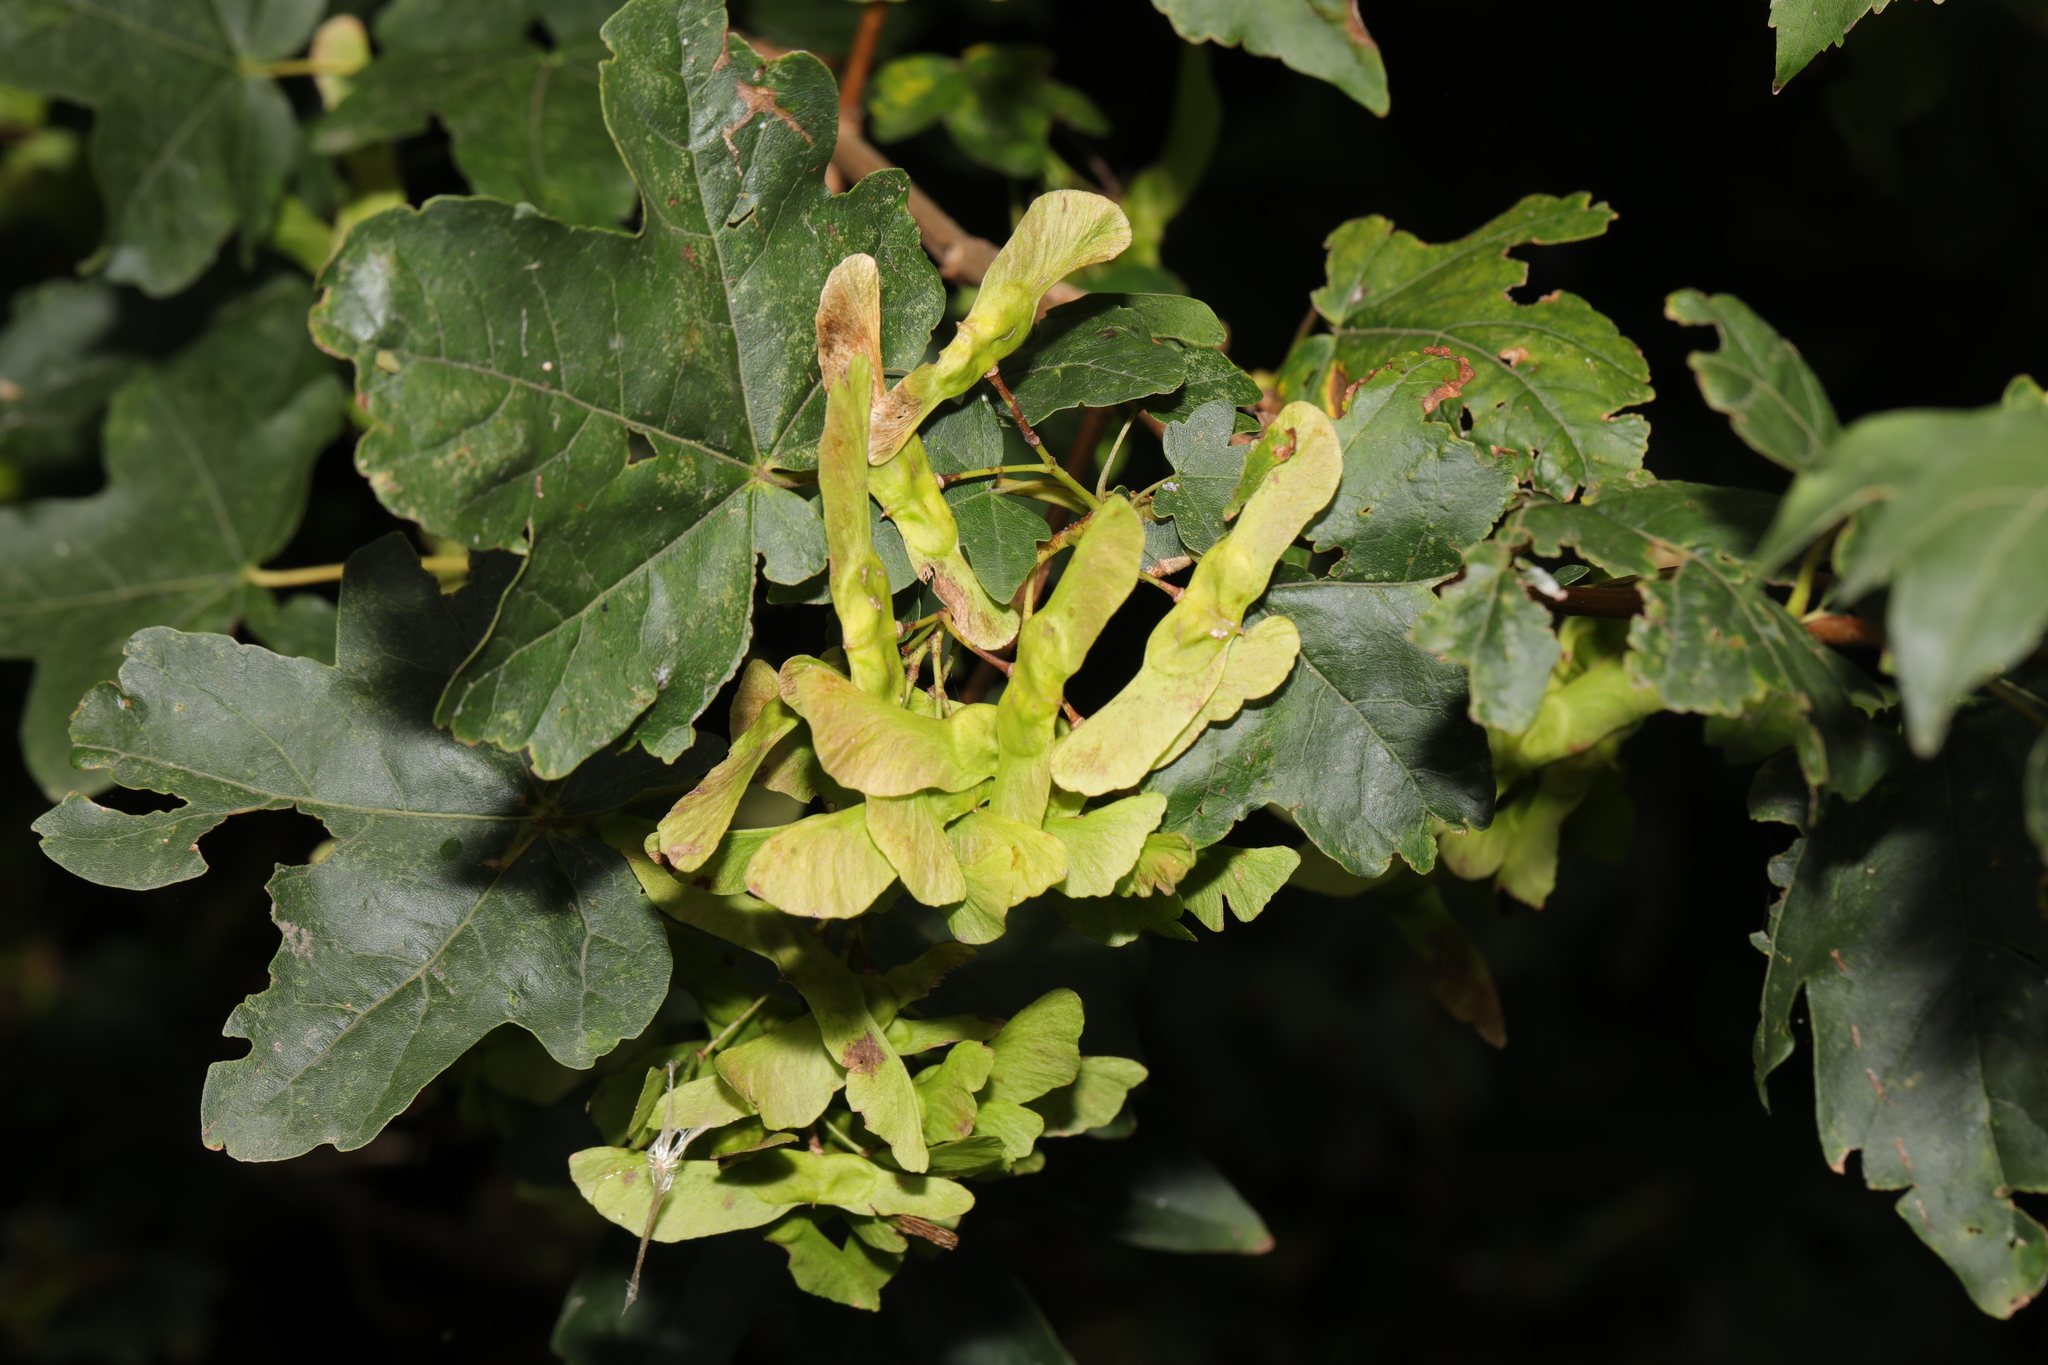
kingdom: Plantae
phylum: Tracheophyta
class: Magnoliopsida
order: Sapindales
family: Sapindaceae
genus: Acer
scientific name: Acer campestre
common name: Field maple
